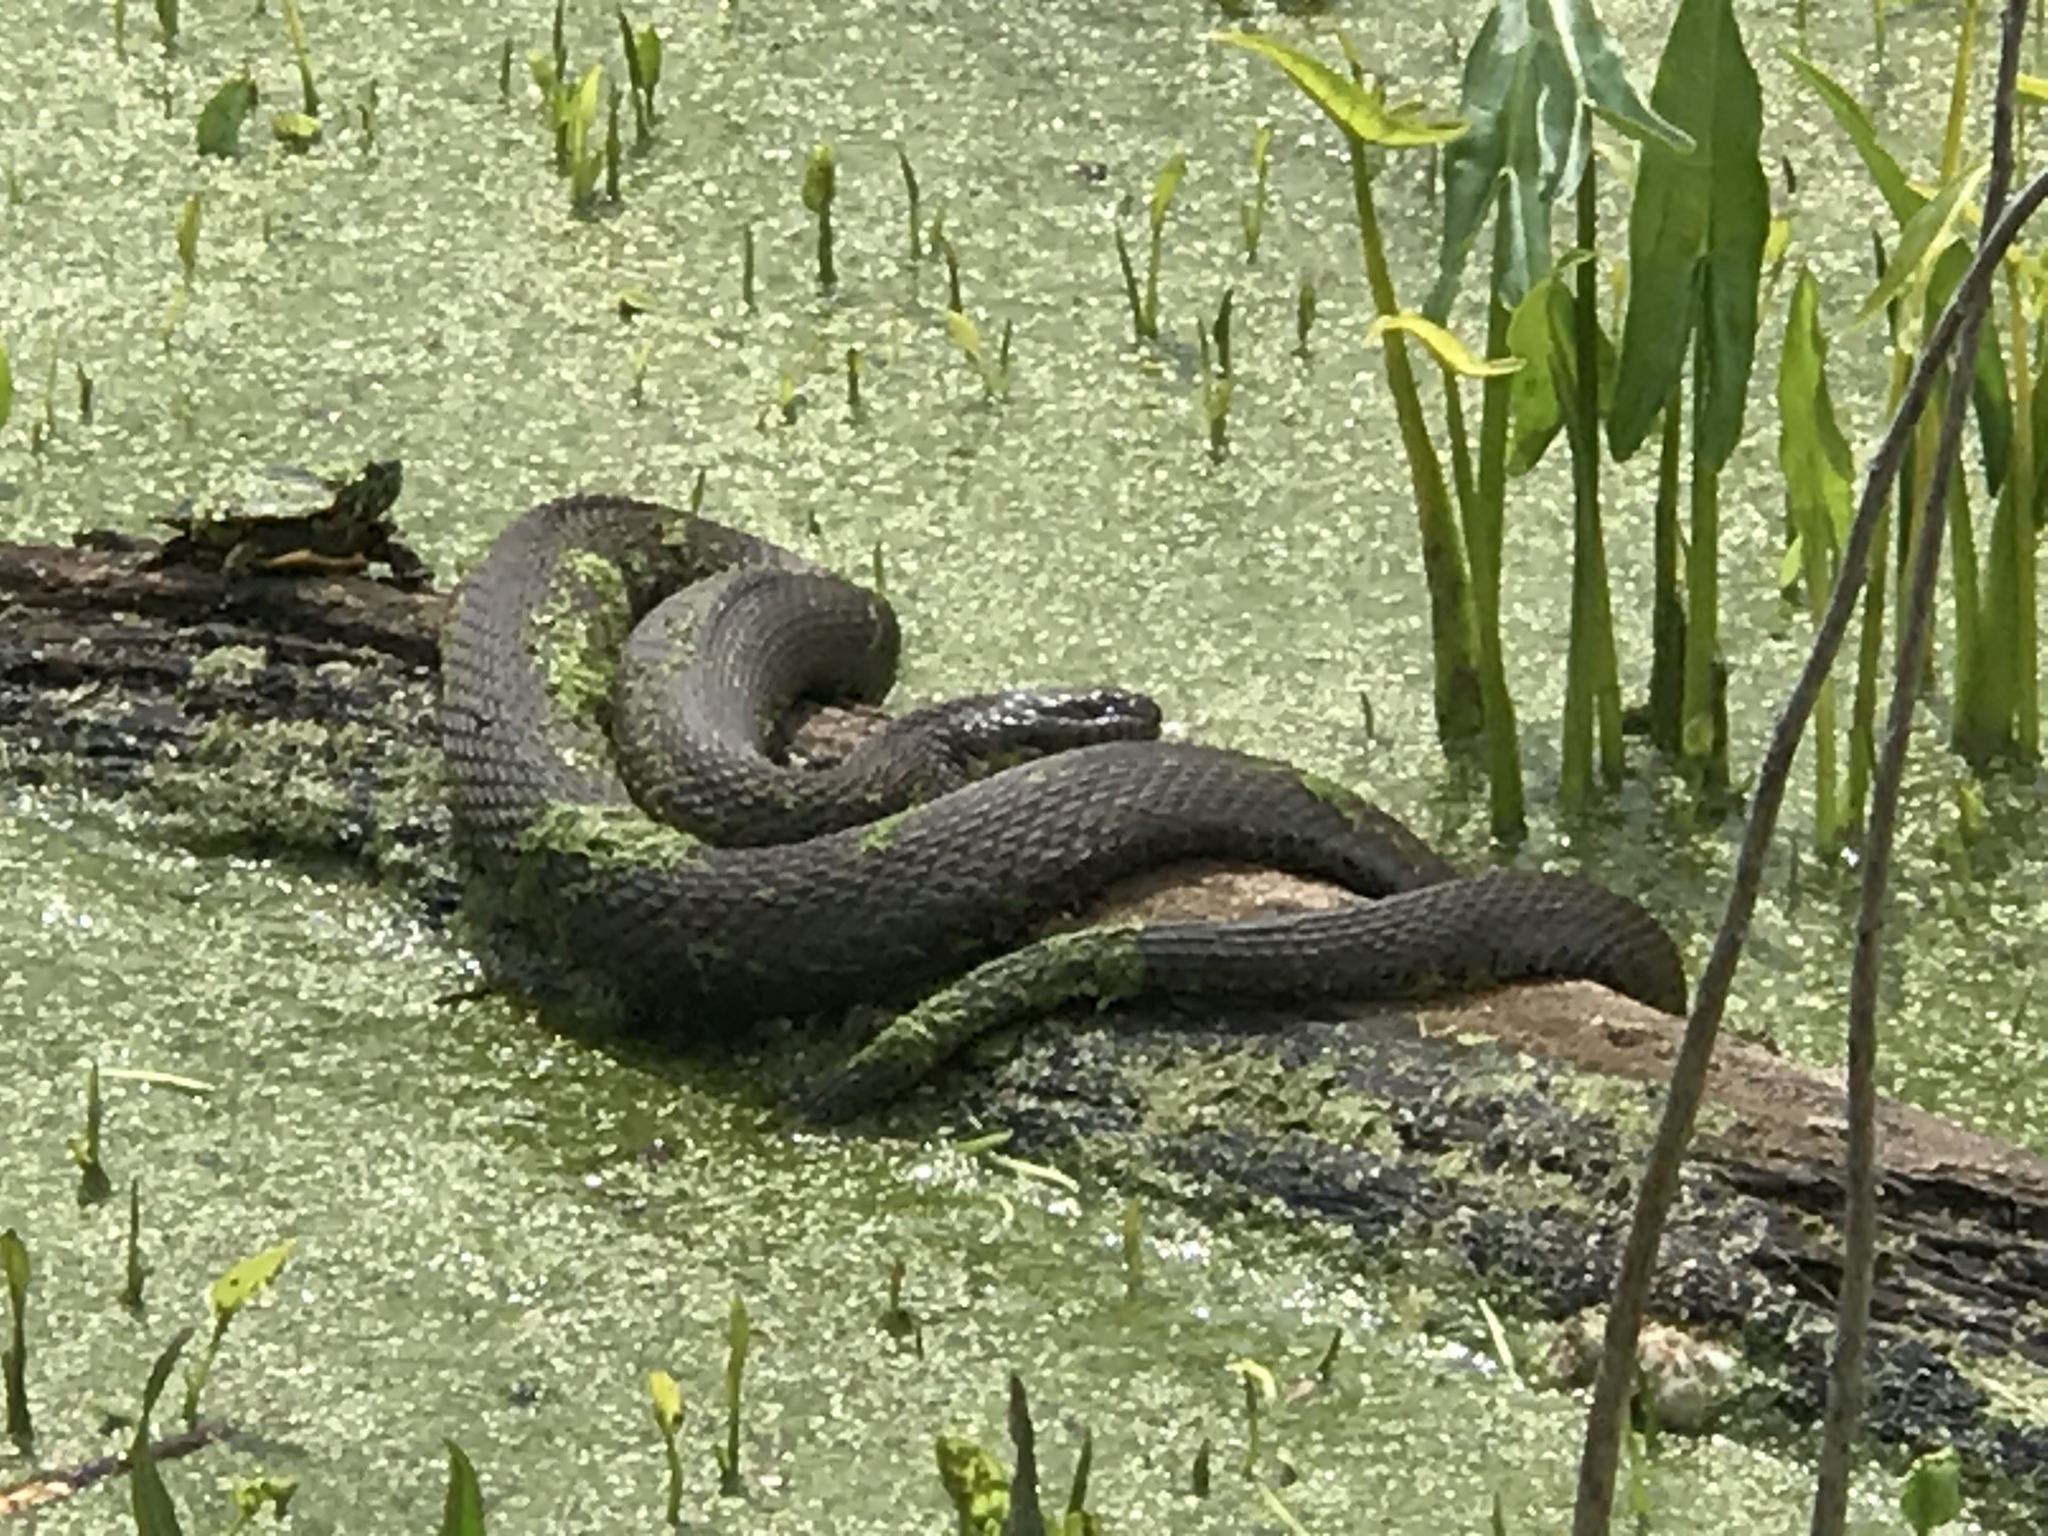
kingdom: Animalia
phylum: Chordata
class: Squamata
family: Colubridae
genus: Nerodia
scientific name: Nerodia sipedon
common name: Northern water snake
